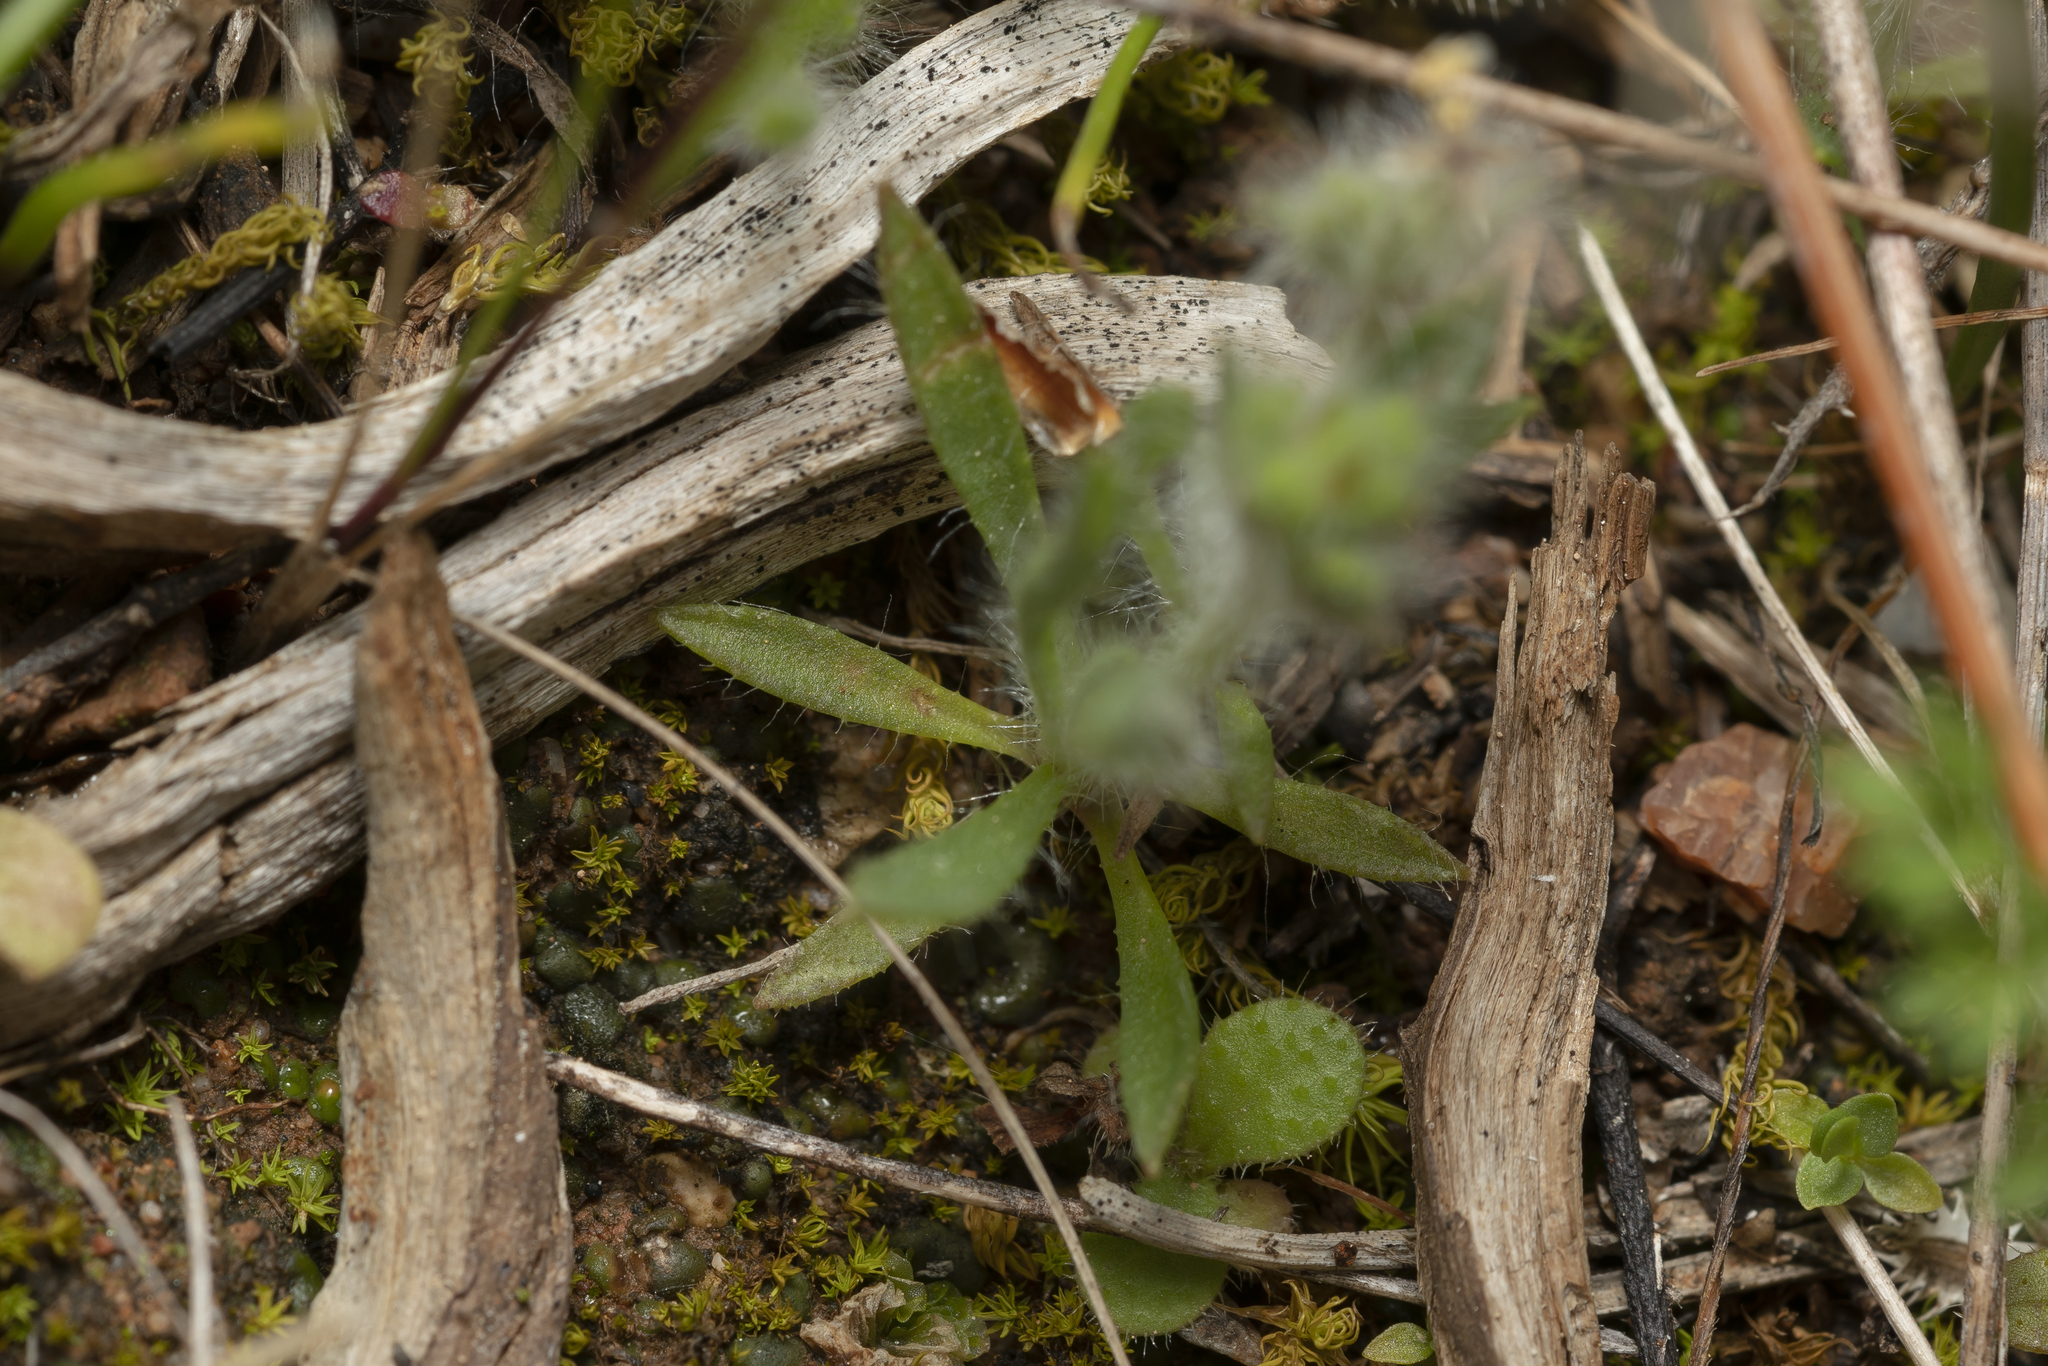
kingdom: Plantae
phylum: Tracheophyta
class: Magnoliopsida
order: Lamiales
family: Plantaginaceae
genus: Plantago
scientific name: Plantago bellardii
